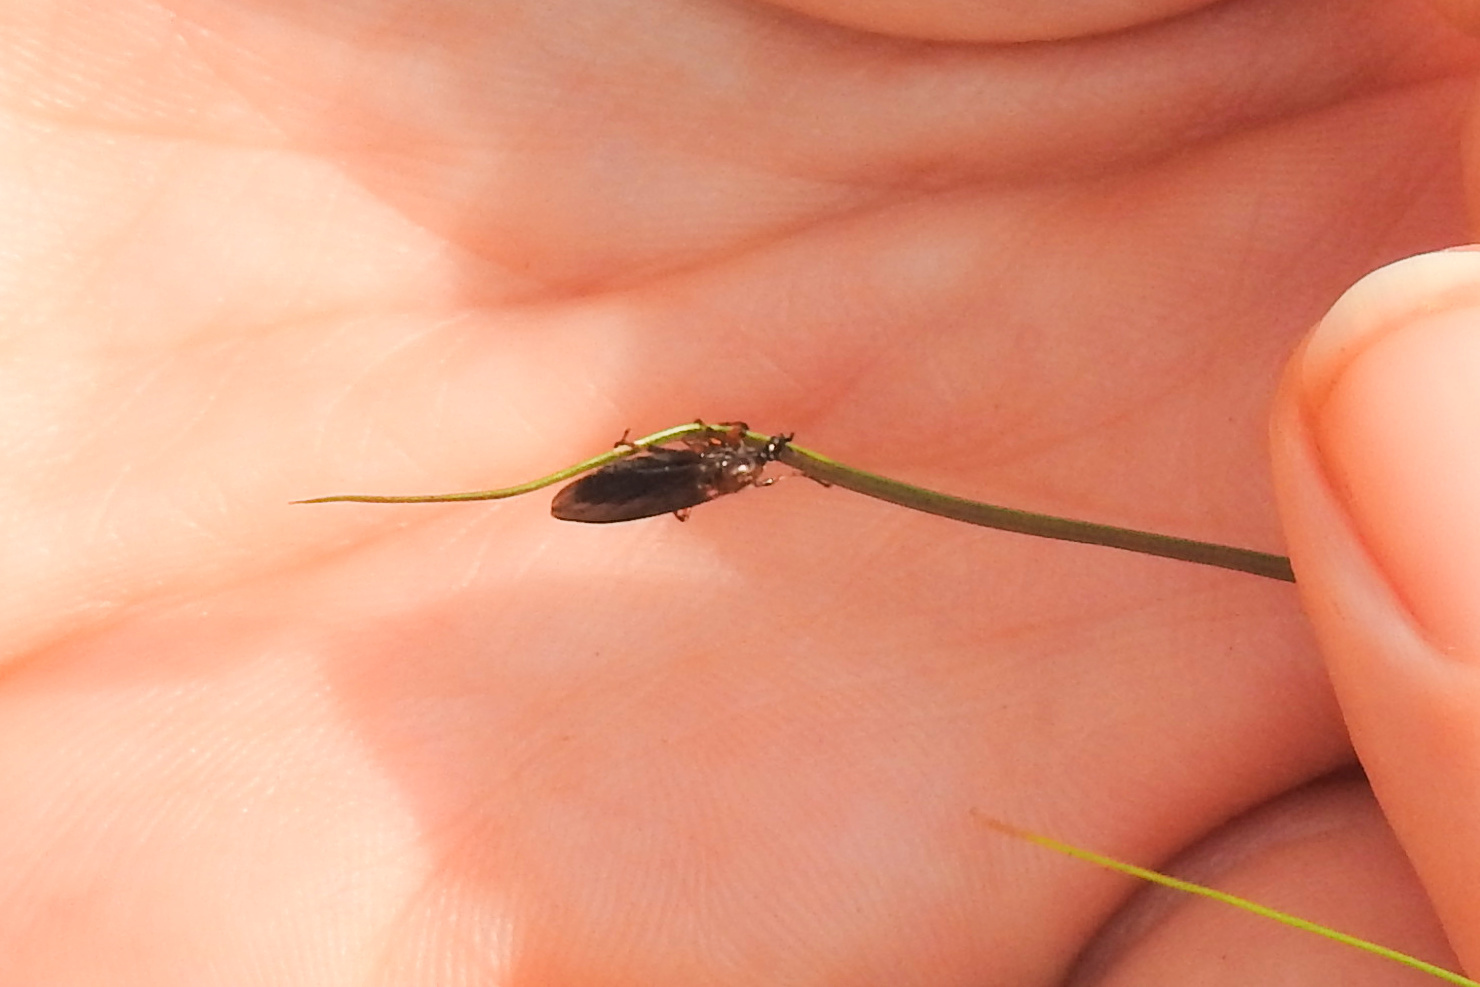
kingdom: Animalia
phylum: Arthropoda
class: Insecta
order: Diptera
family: Bibionidae
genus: Bibio
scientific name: Bibio articulatus
